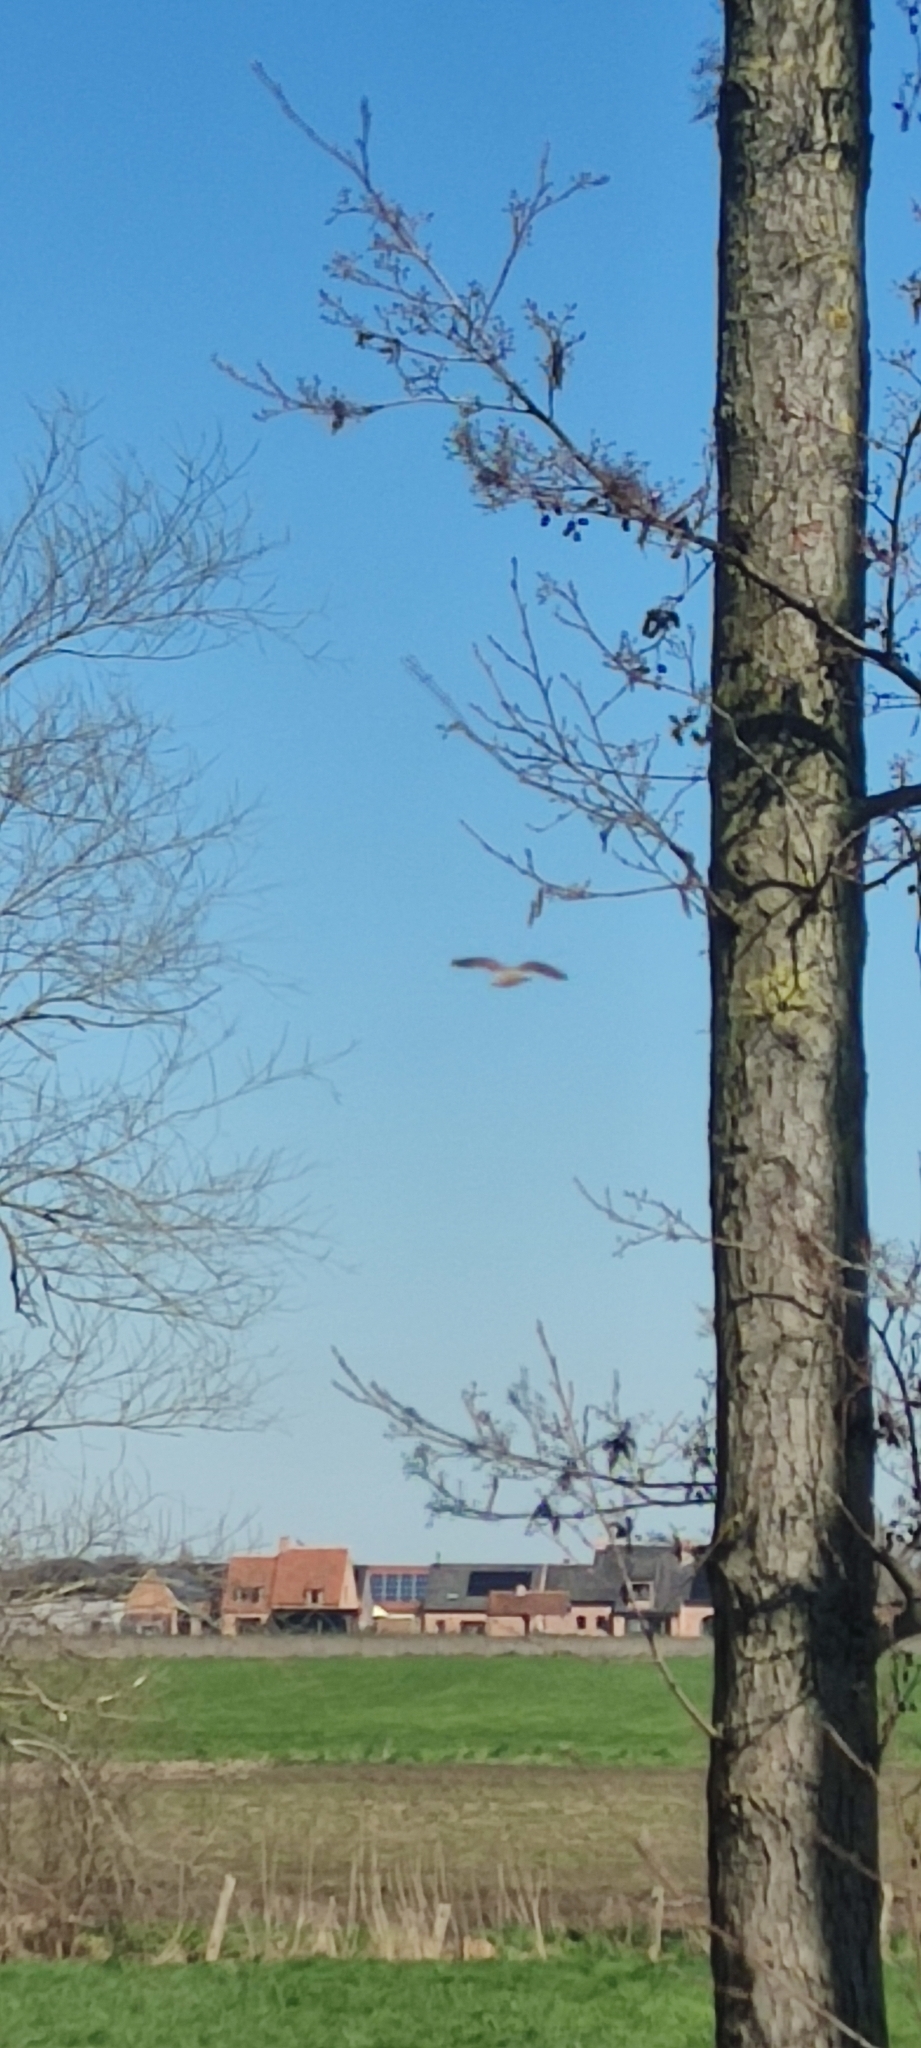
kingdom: Animalia
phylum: Chordata
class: Aves
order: Falconiformes
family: Falconidae
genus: Falco
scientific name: Falco tinnunculus
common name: Common kestrel
